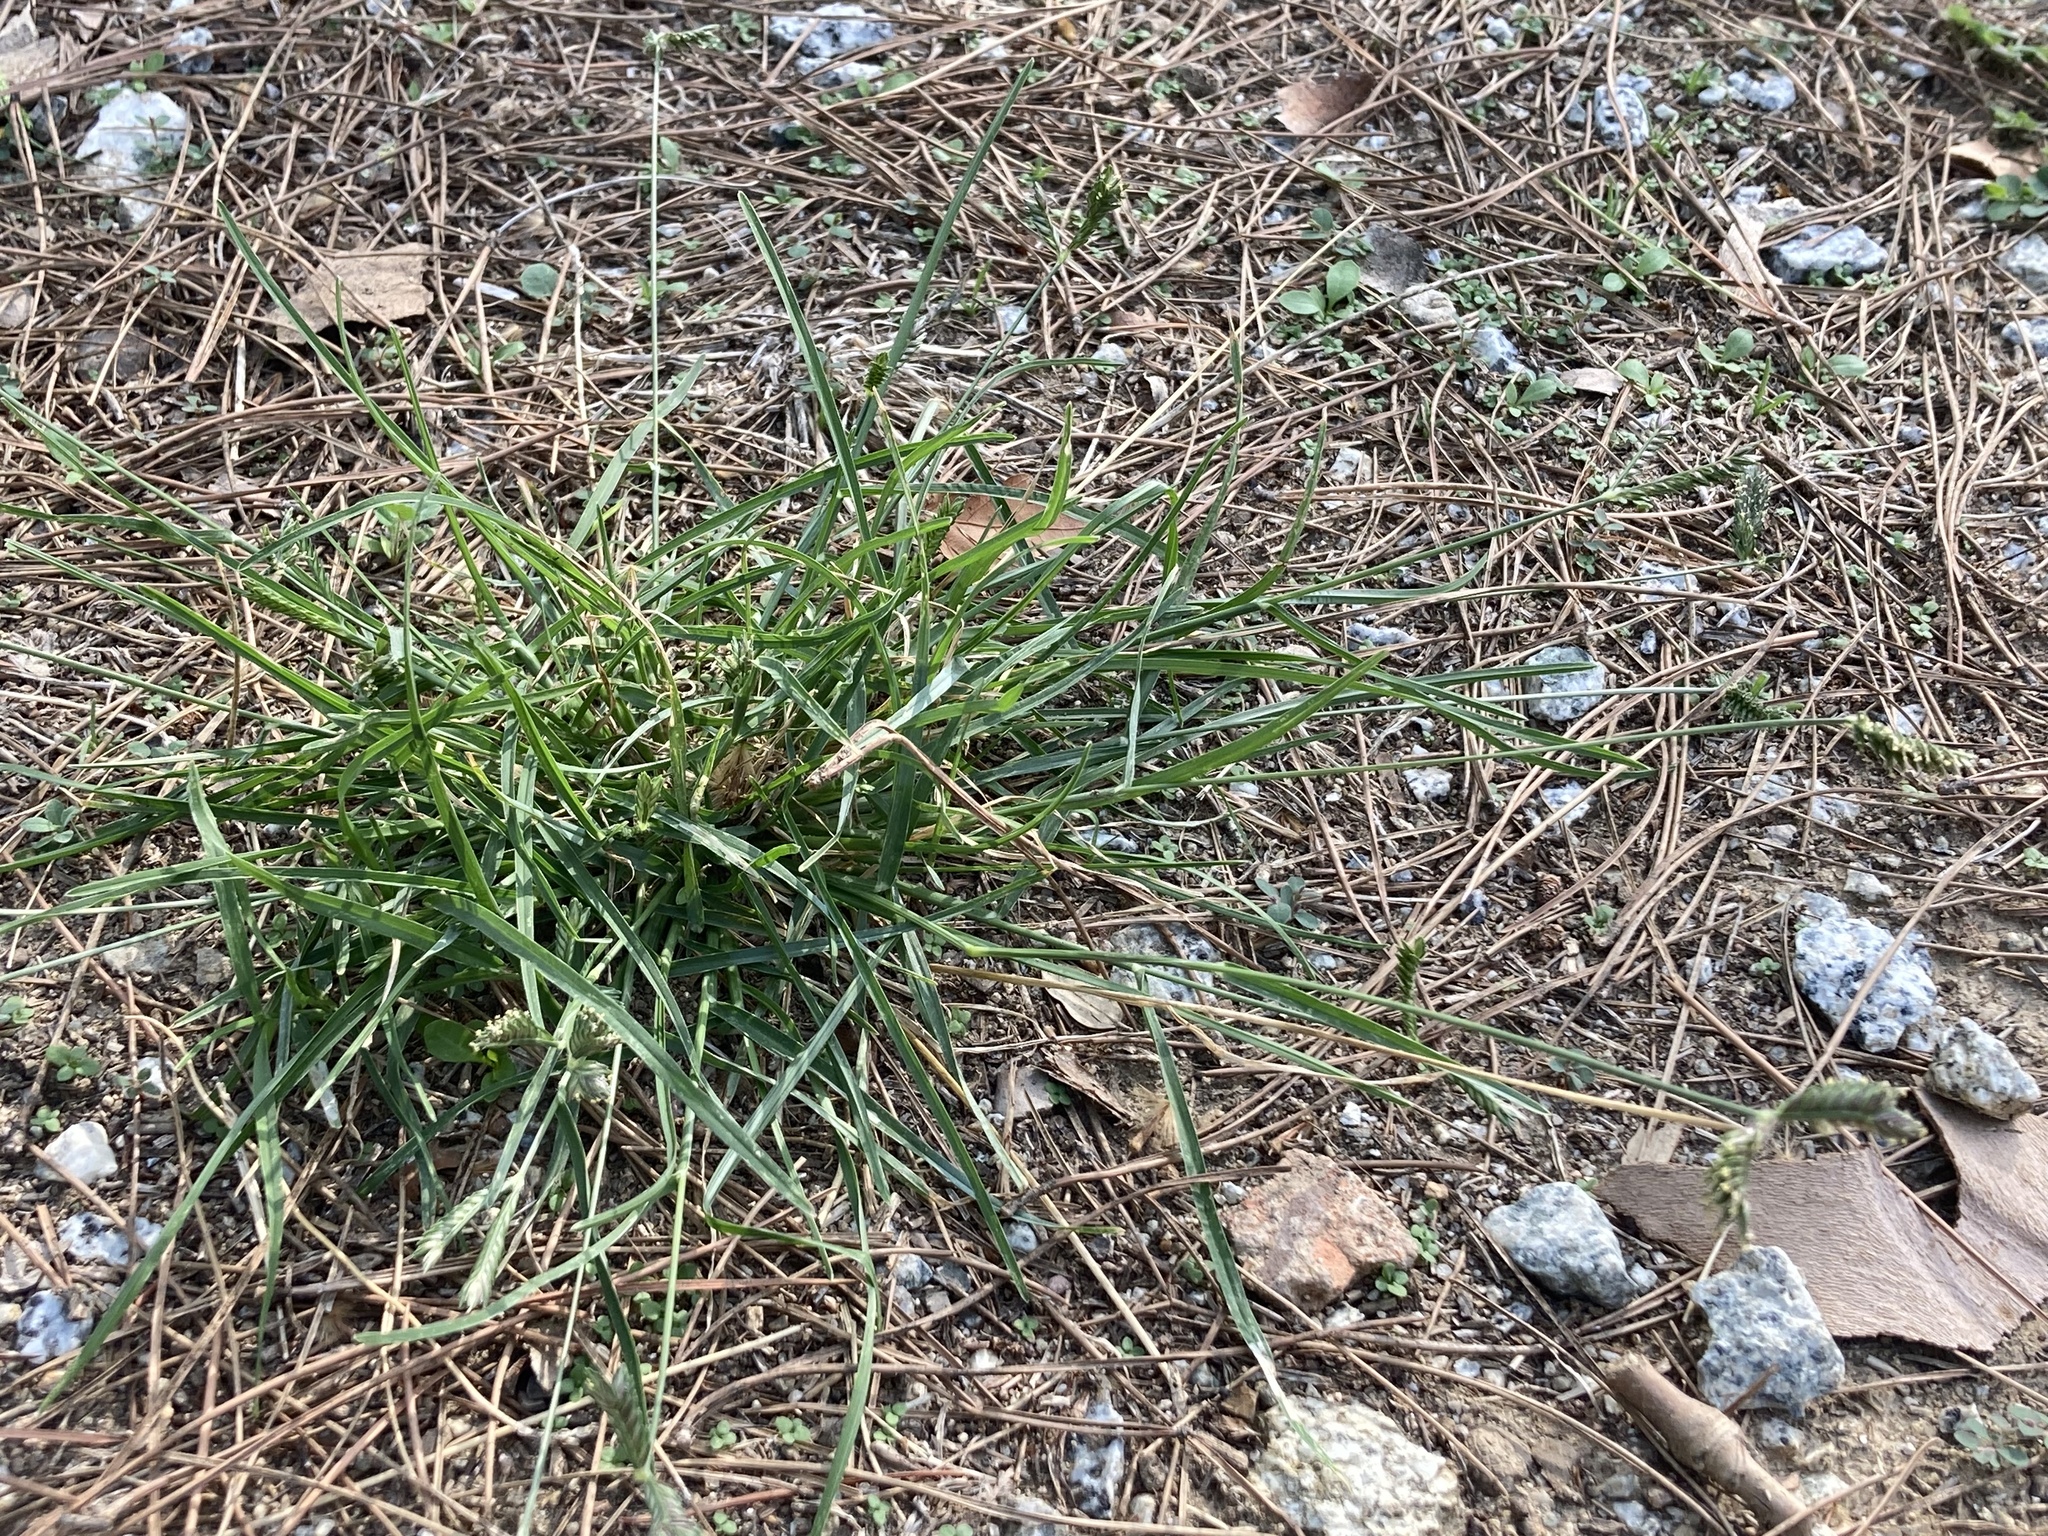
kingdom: Plantae
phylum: Tracheophyta
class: Liliopsida
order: Poales
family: Poaceae
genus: Eleusine
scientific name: Eleusine tristachya
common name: American yard-grass
